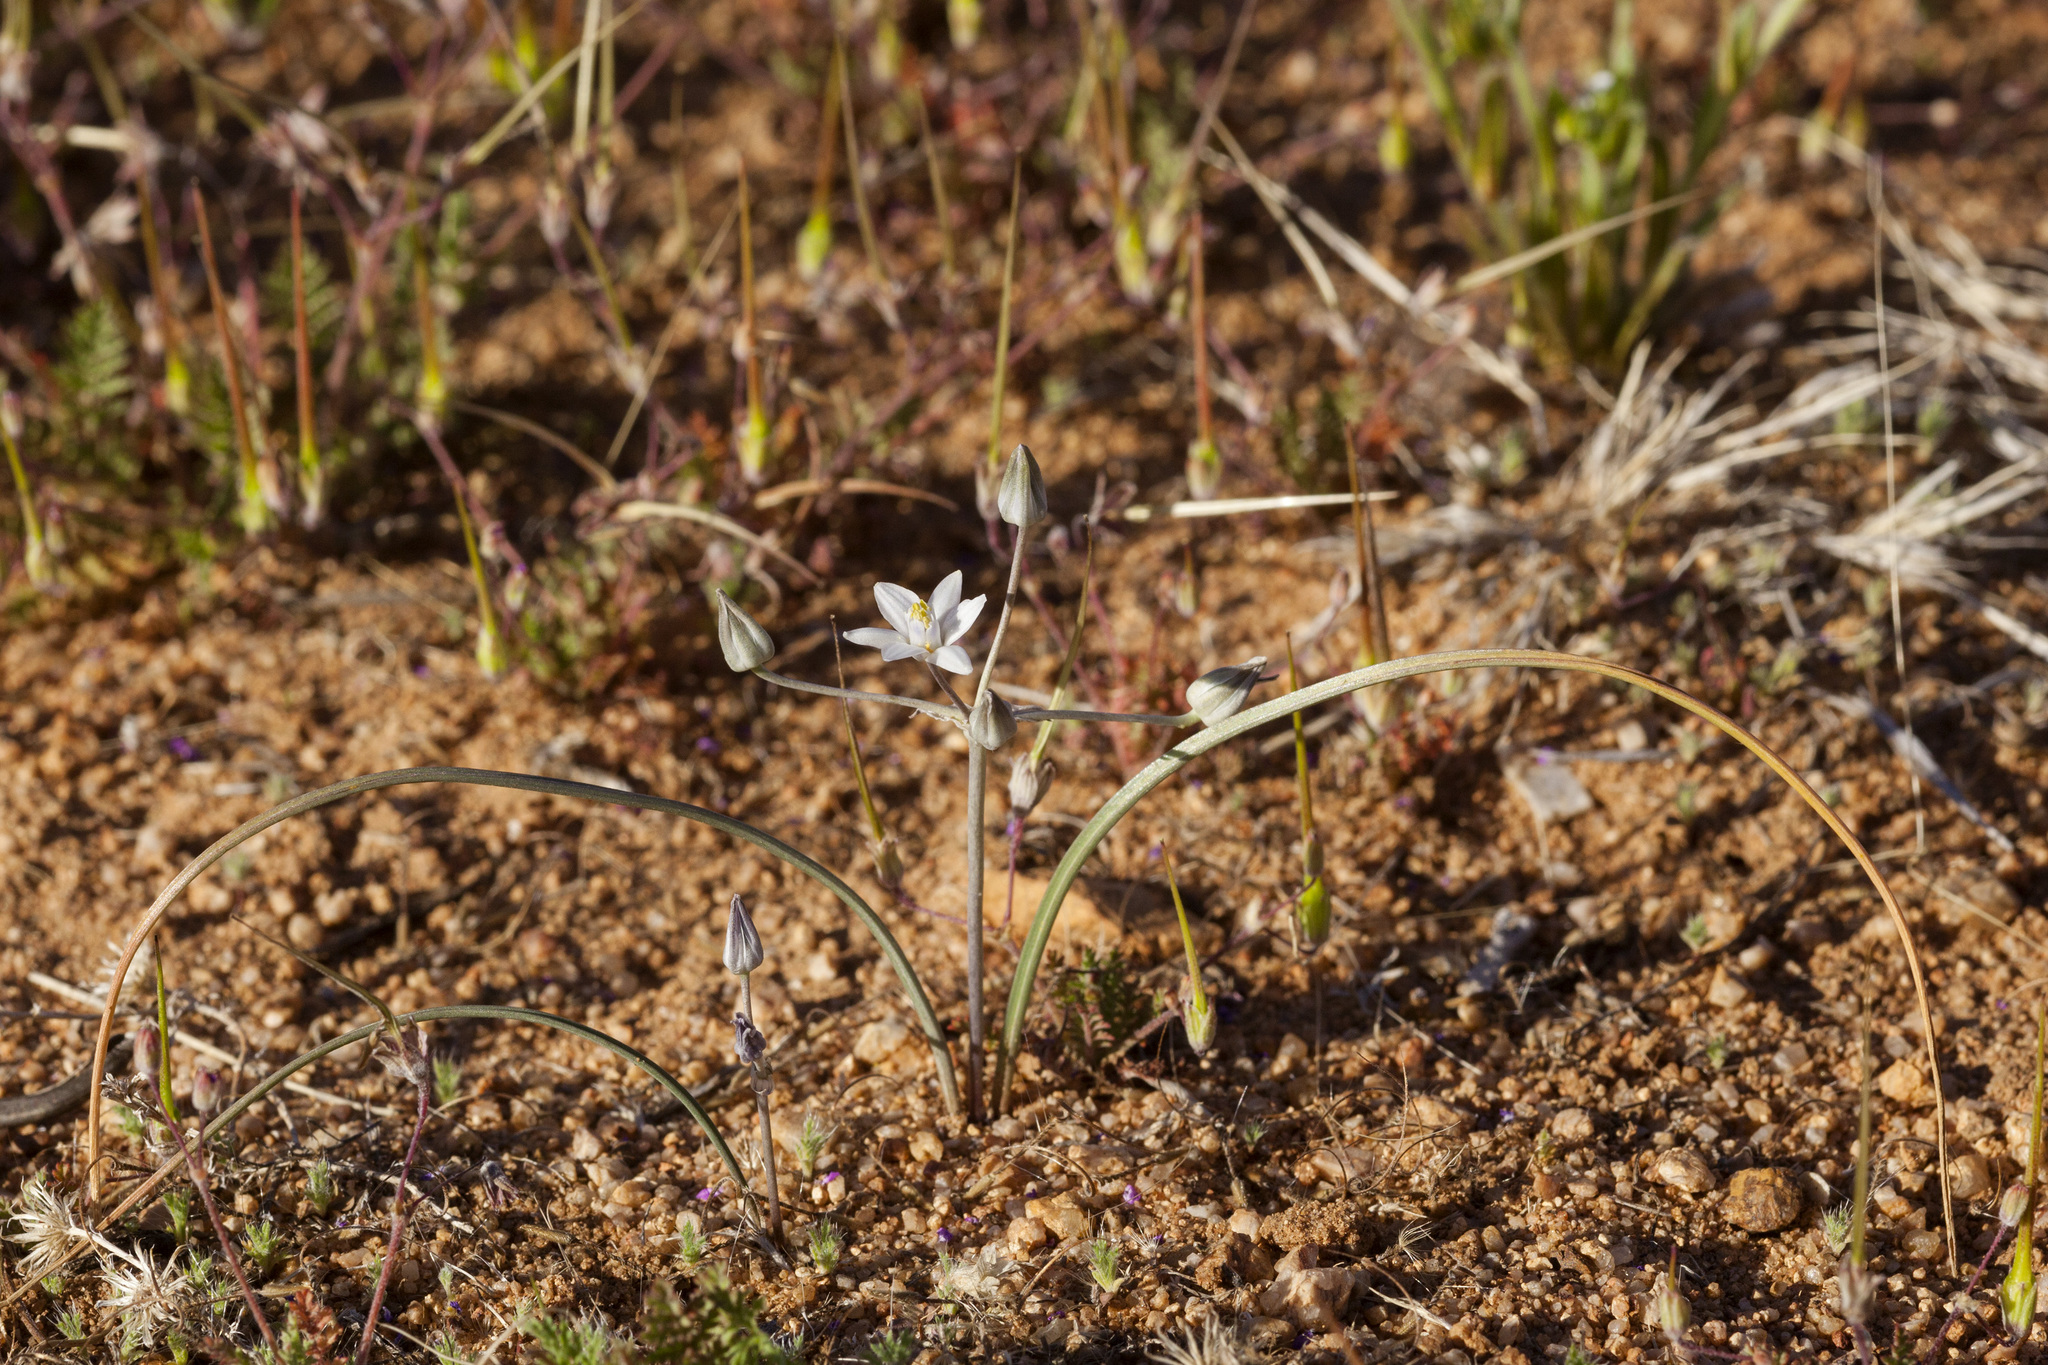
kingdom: Plantae
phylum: Tracheophyta
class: Liliopsida
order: Asparagales
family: Asparagaceae
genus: Muilla
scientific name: Muilla lordsburgana
